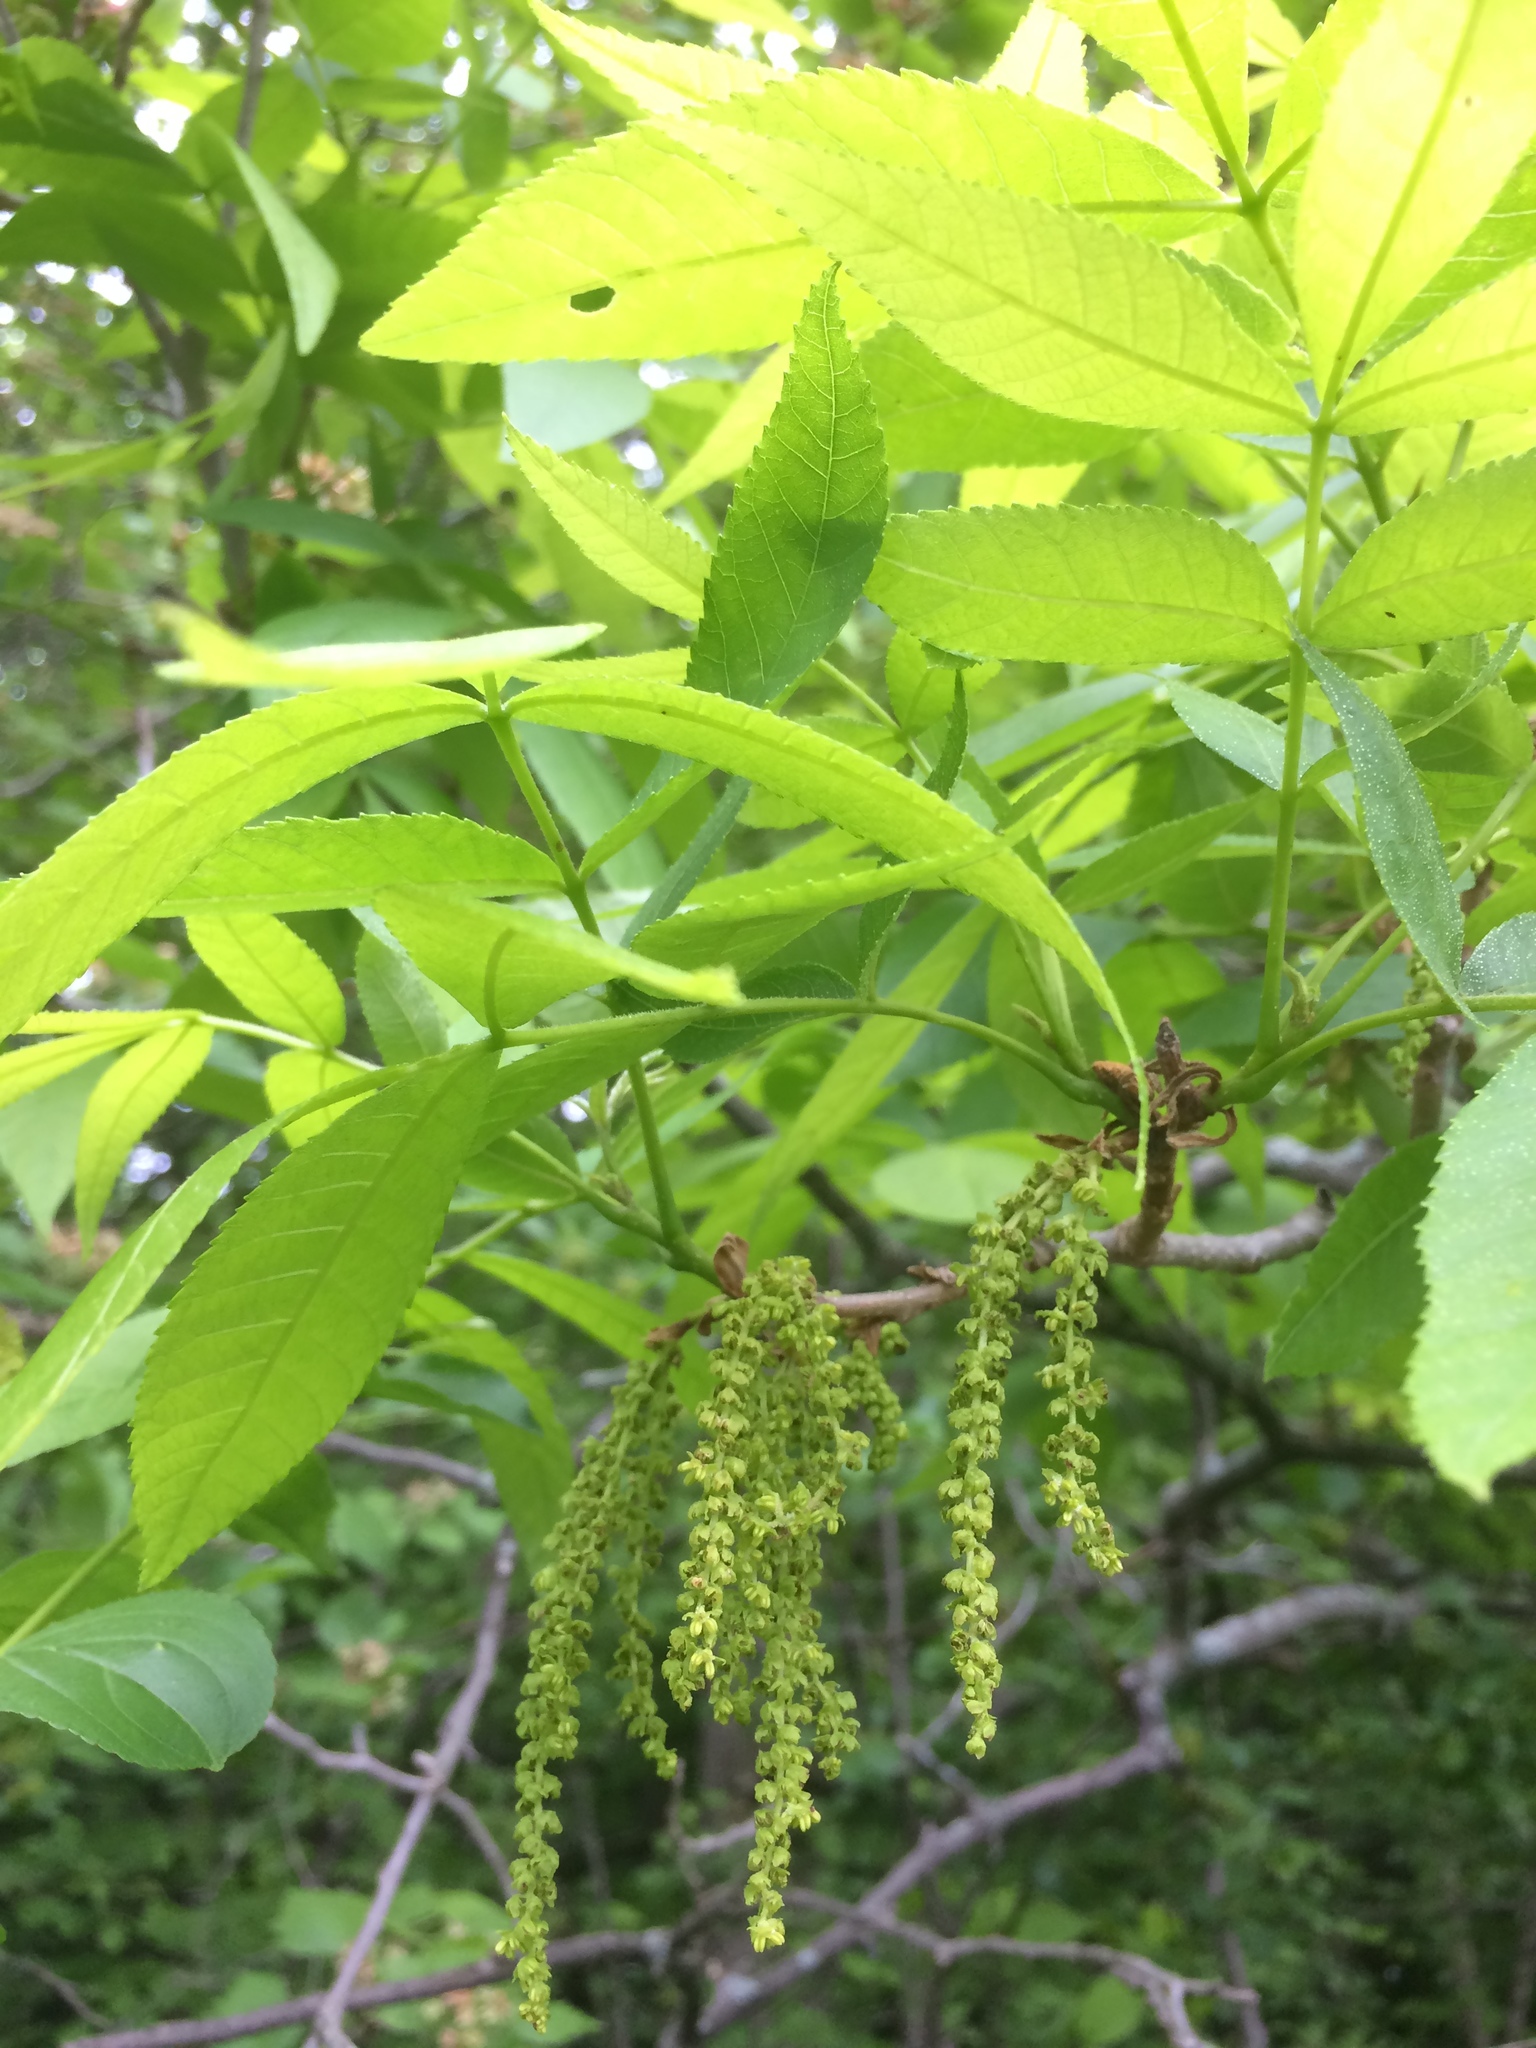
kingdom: Plantae
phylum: Tracheophyta
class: Magnoliopsida
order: Fagales
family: Juglandaceae
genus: Carya
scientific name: Carya cordiformis
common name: Bitternut hickory
